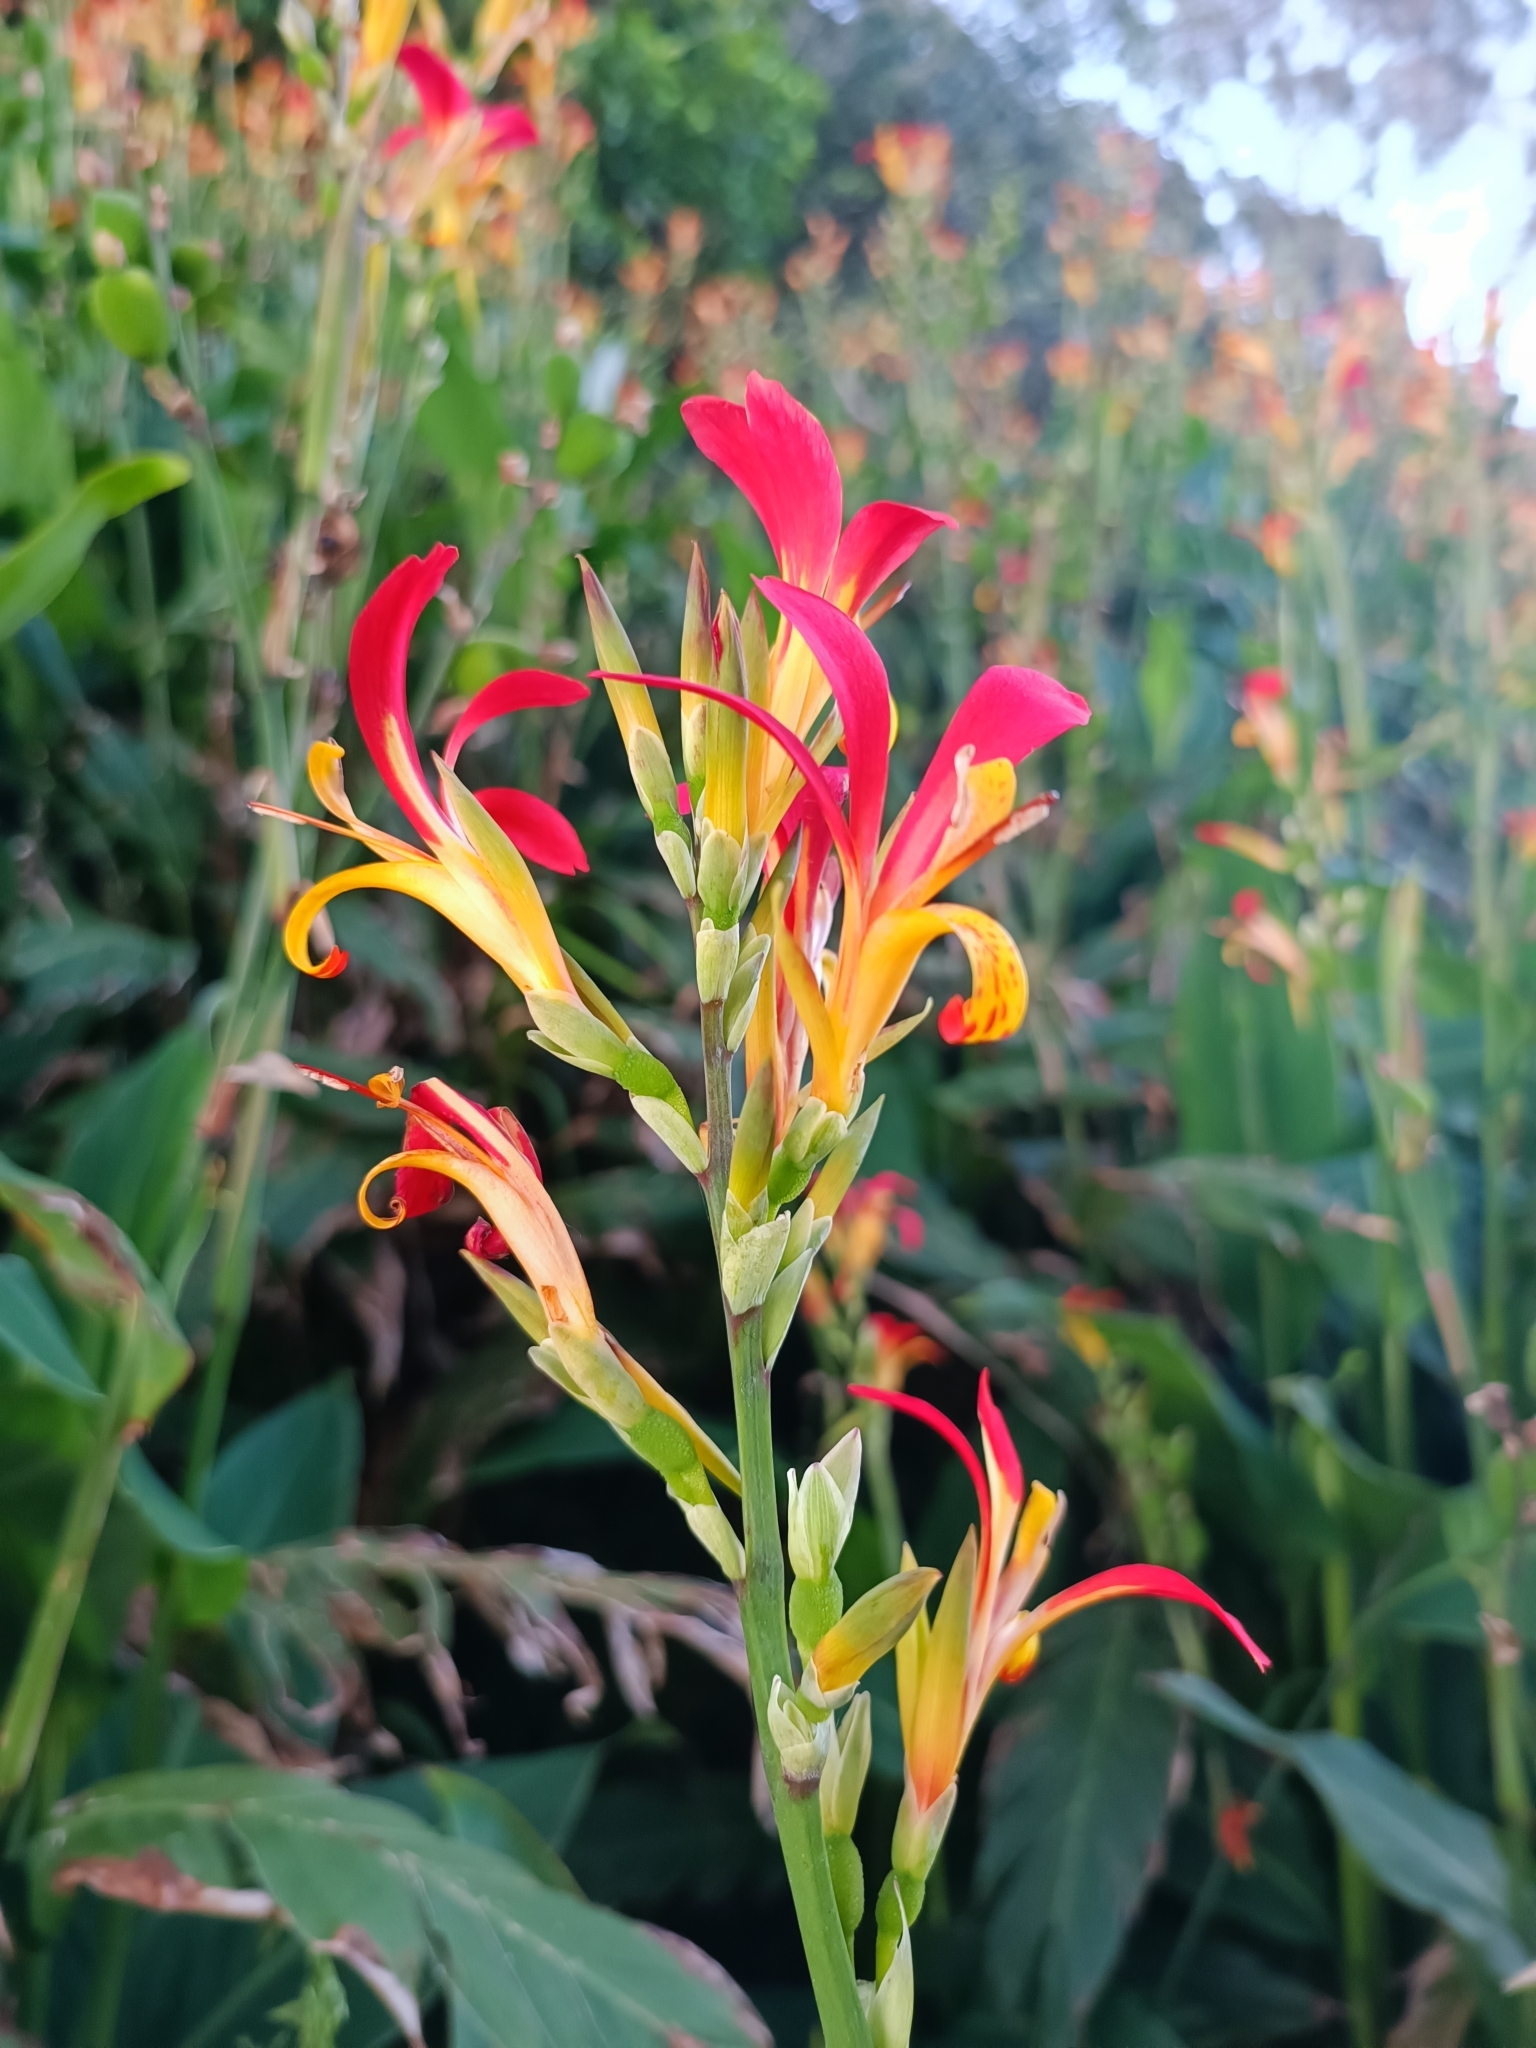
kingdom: Plantae
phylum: Tracheophyta
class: Liliopsida
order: Zingiberales
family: Cannaceae
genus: Canna
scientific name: Canna indica
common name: Indian shot
